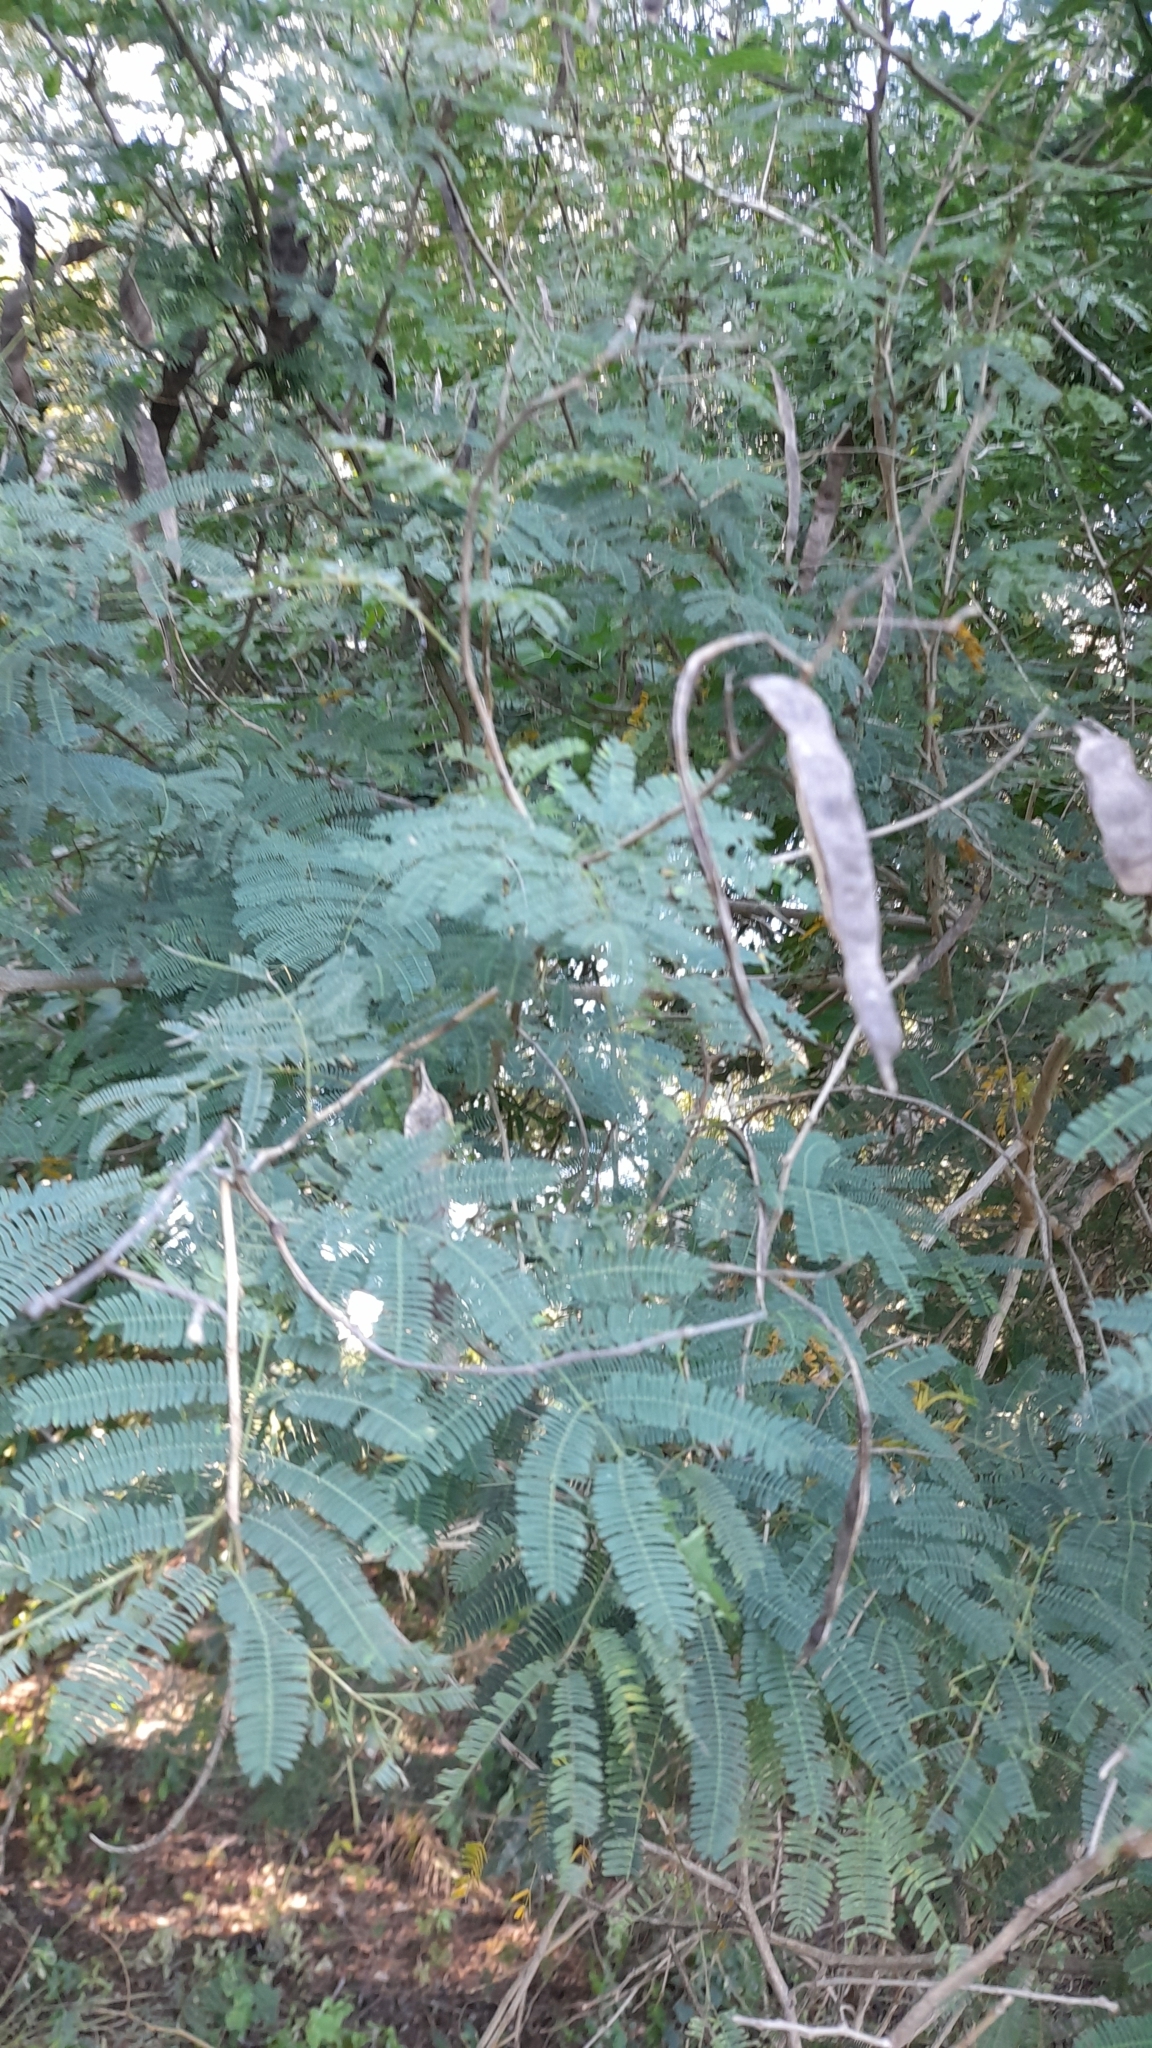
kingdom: Plantae
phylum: Tracheophyta
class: Magnoliopsida
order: Fabales
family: Fabaceae
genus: Senegalia
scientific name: Senegalia praecox
